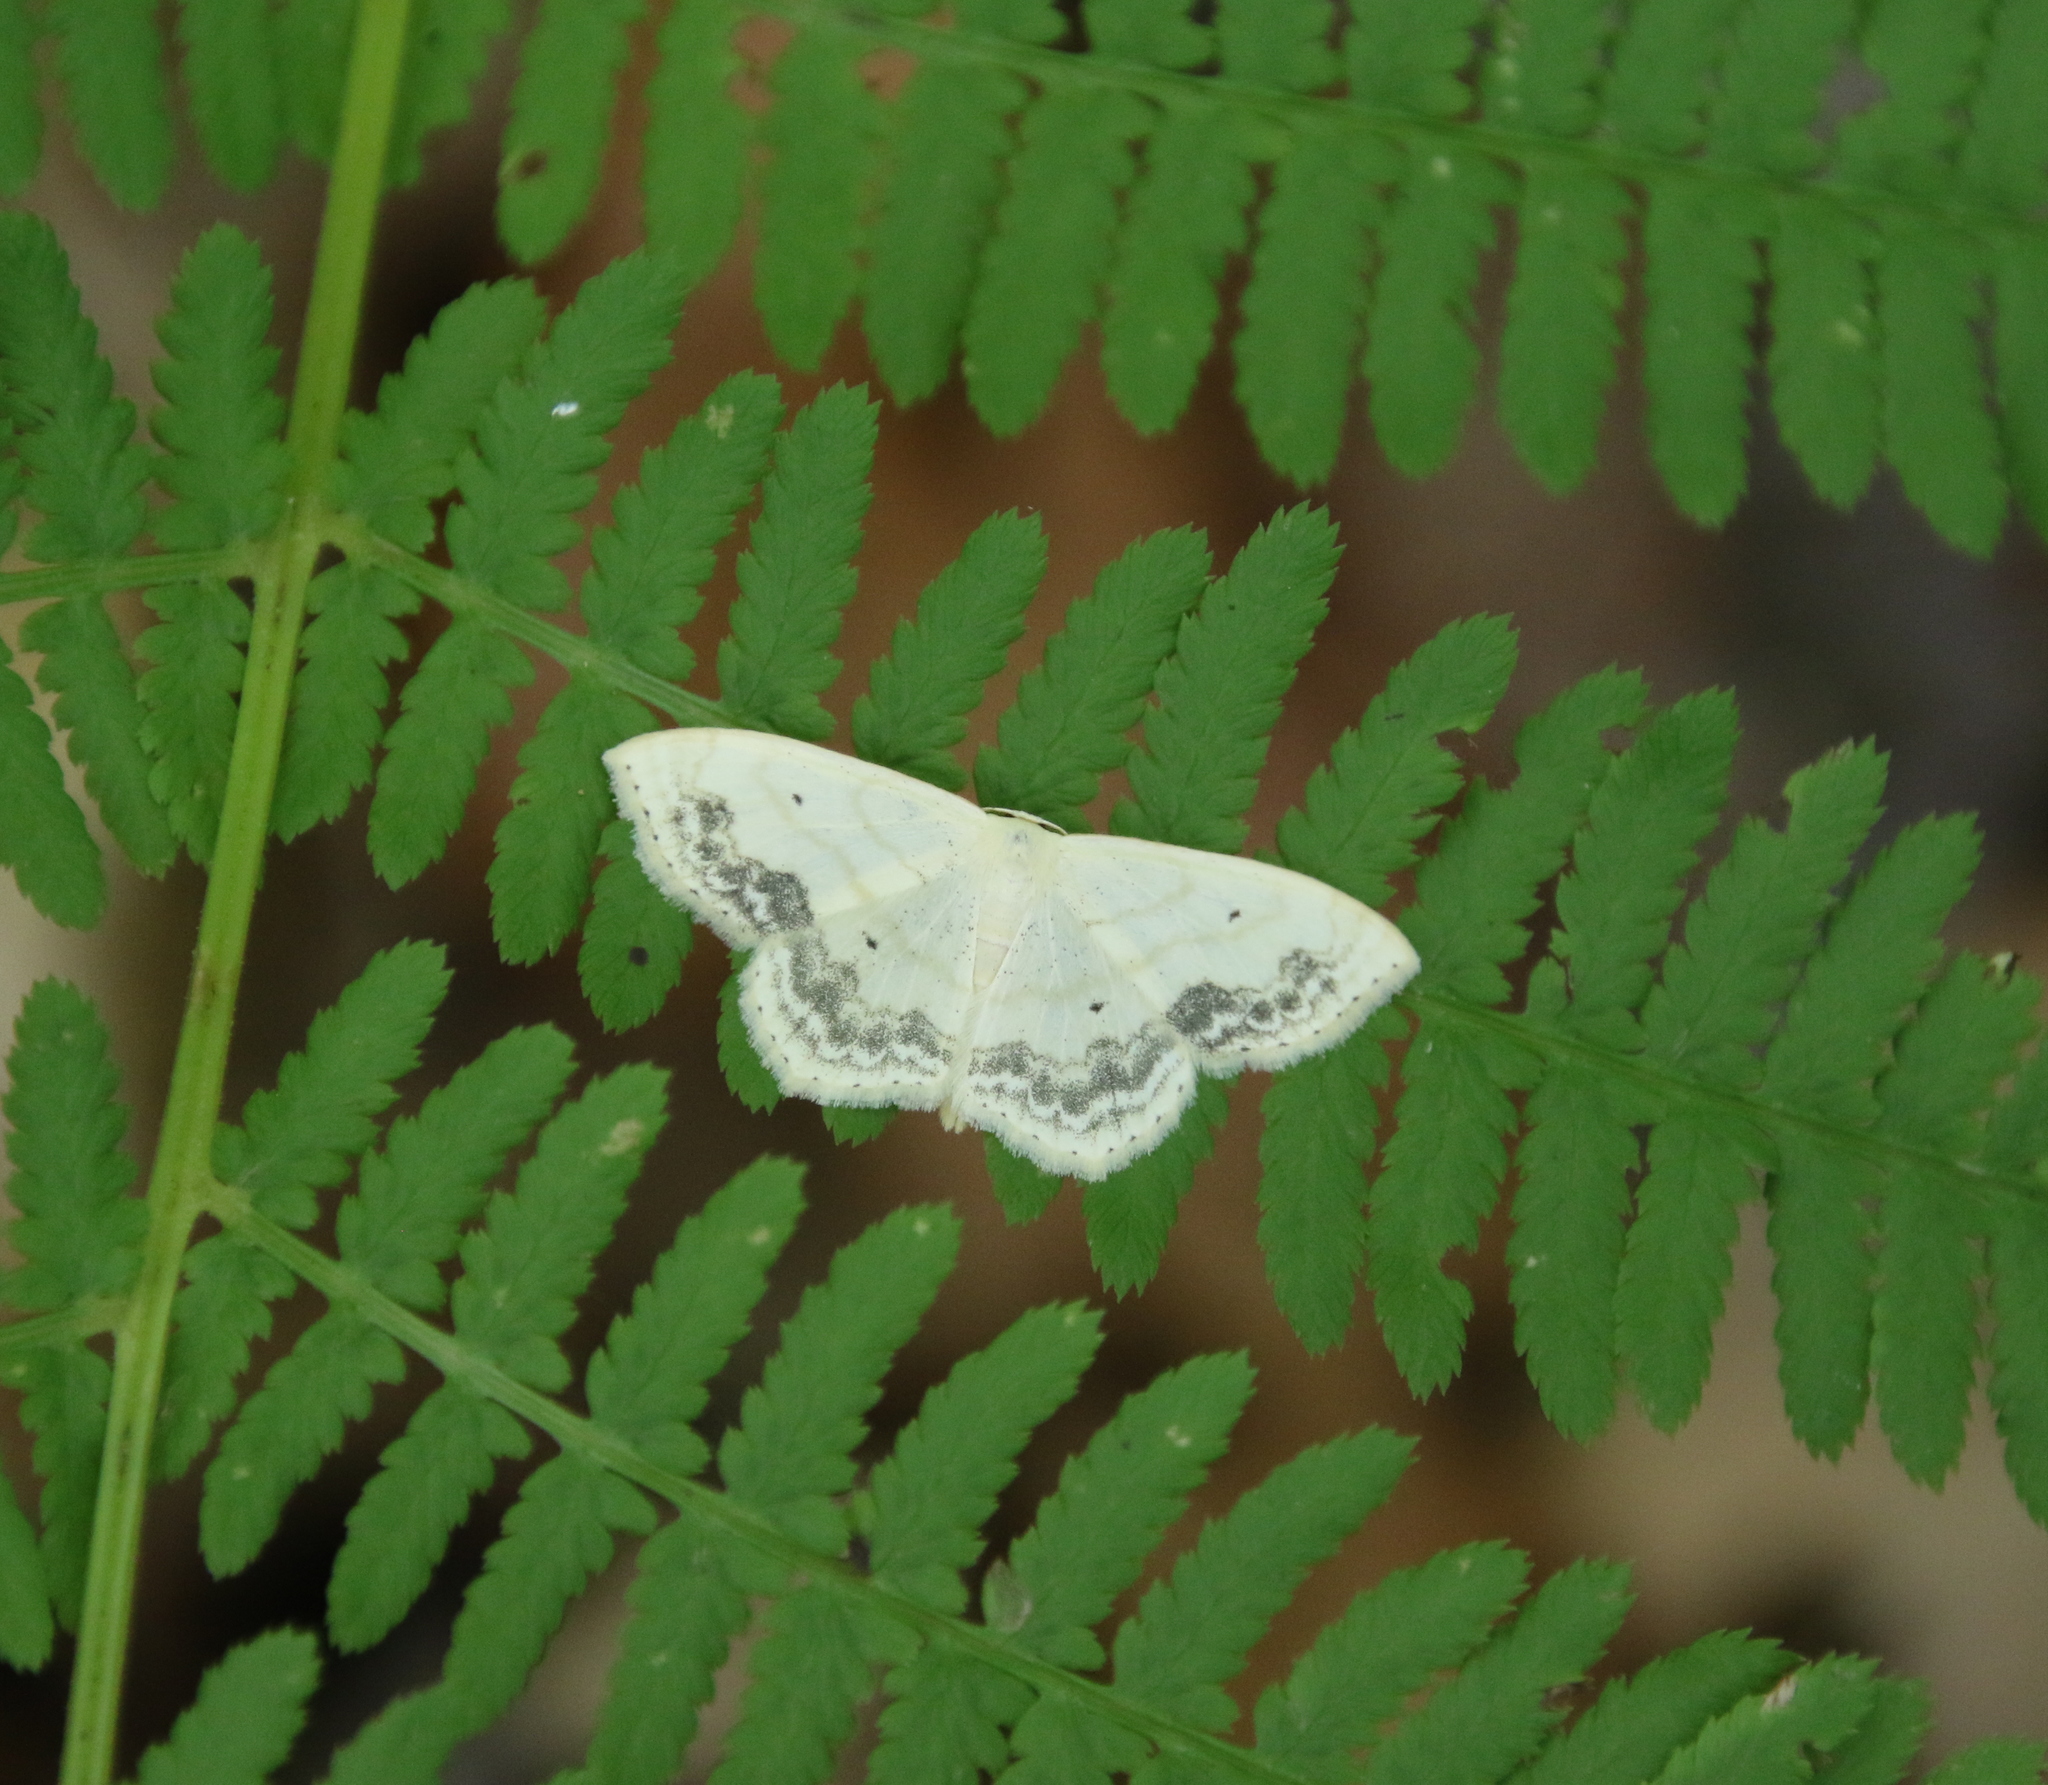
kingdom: Animalia
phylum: Arthropoda
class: Insecta
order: Lepidoptera
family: Geometridae
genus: Scopula
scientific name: Scopula limboundata
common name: Large lace border
